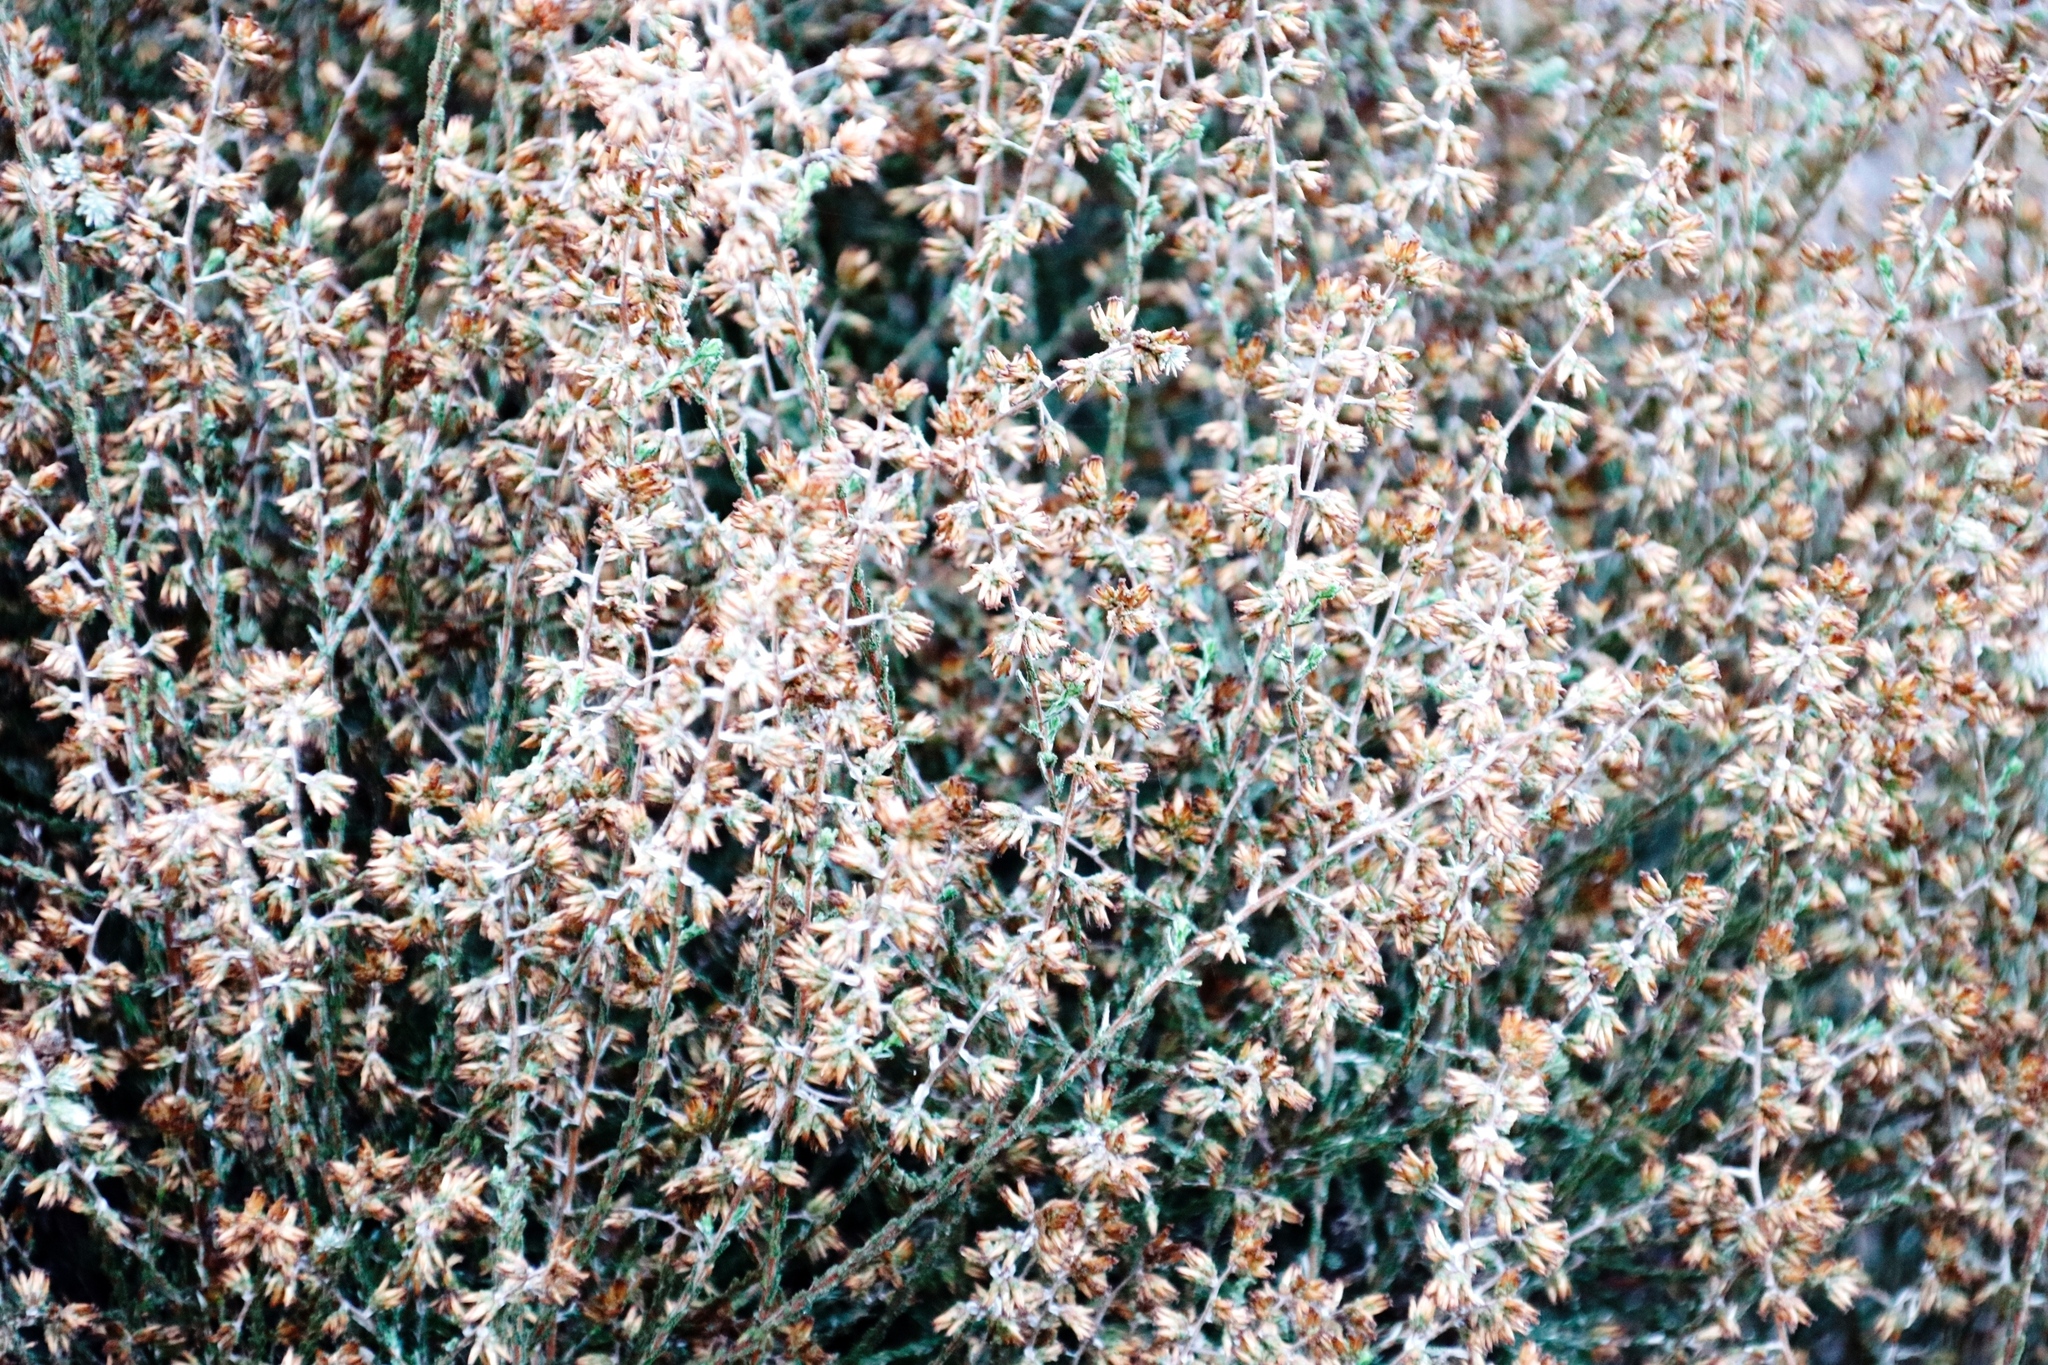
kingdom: Plantae
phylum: Tracheophyta
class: Magnoliopsida
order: Asterales
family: Asteraceae
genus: Myrovernix
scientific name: Myrovernix scaber
